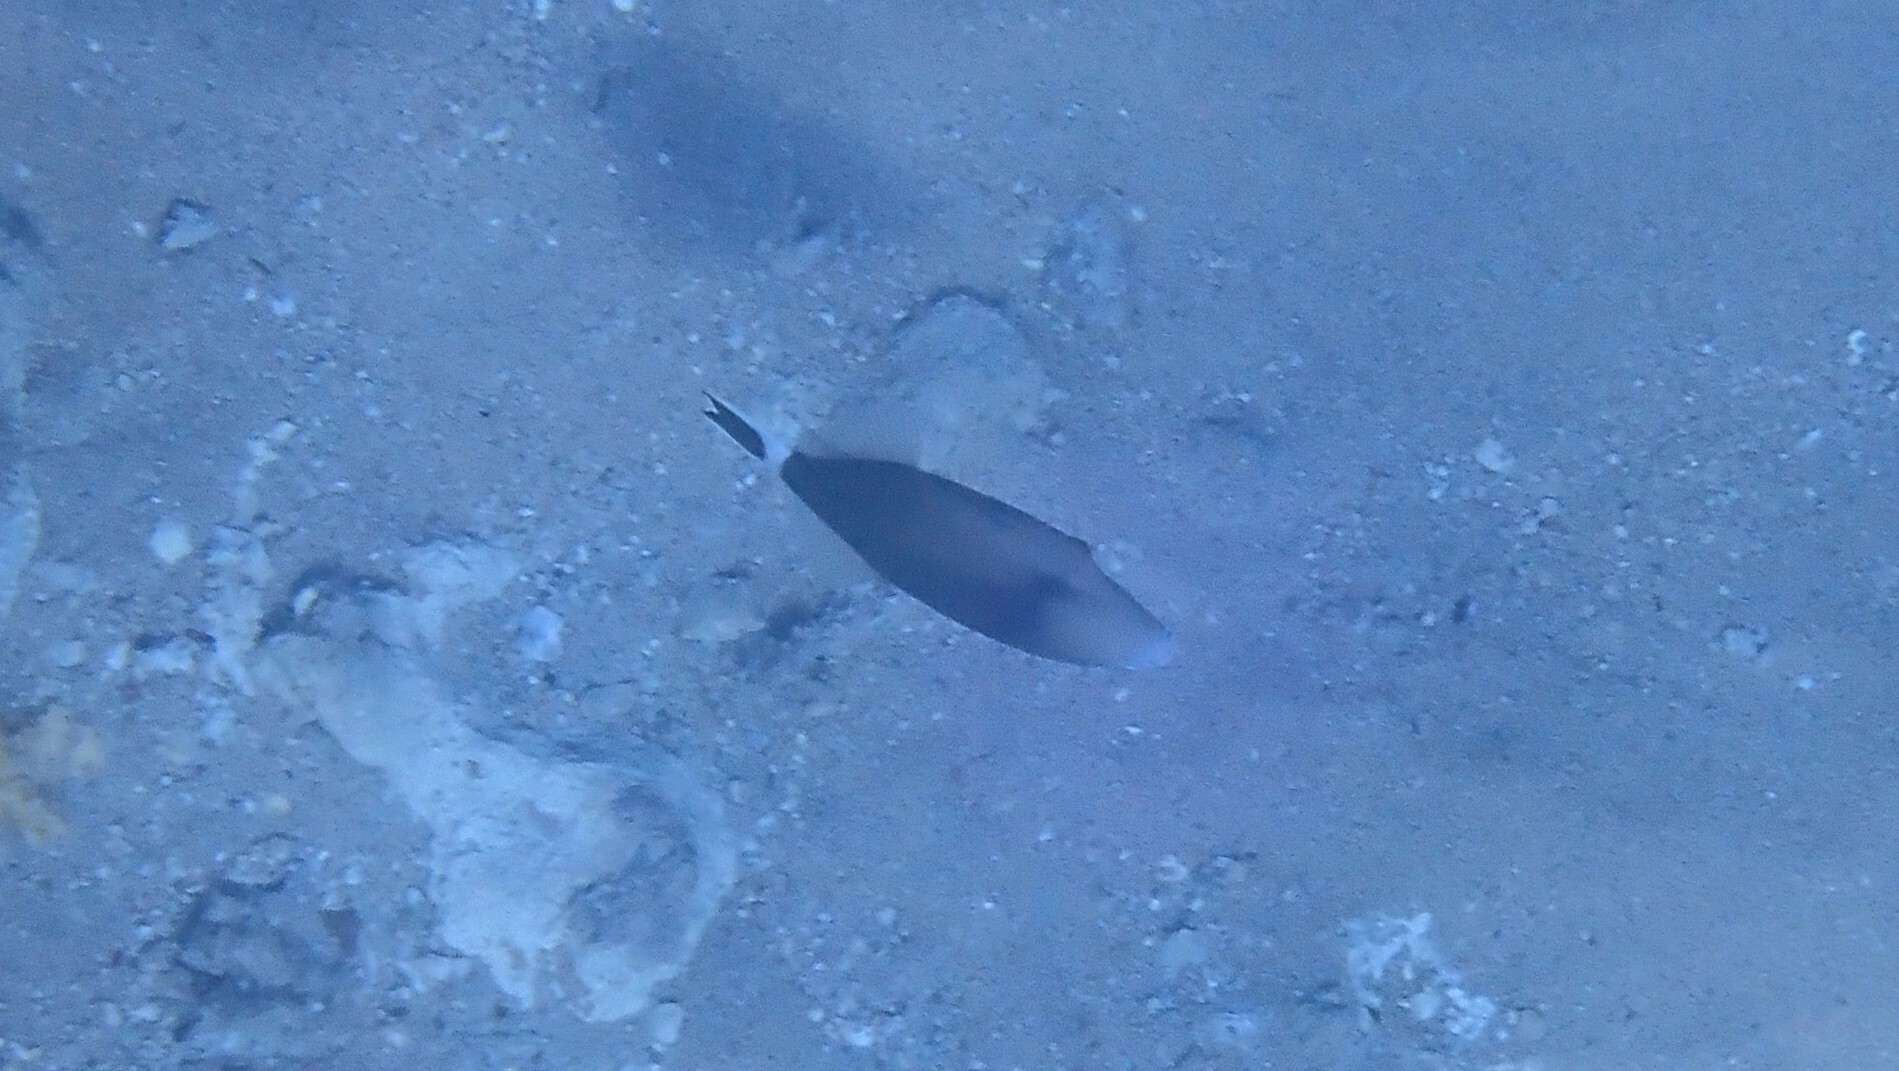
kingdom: Animalia
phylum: Chordata
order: Tetraodontiformes
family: Balistidae
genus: Sufflamen
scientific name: Sufflamen albicaudatum
